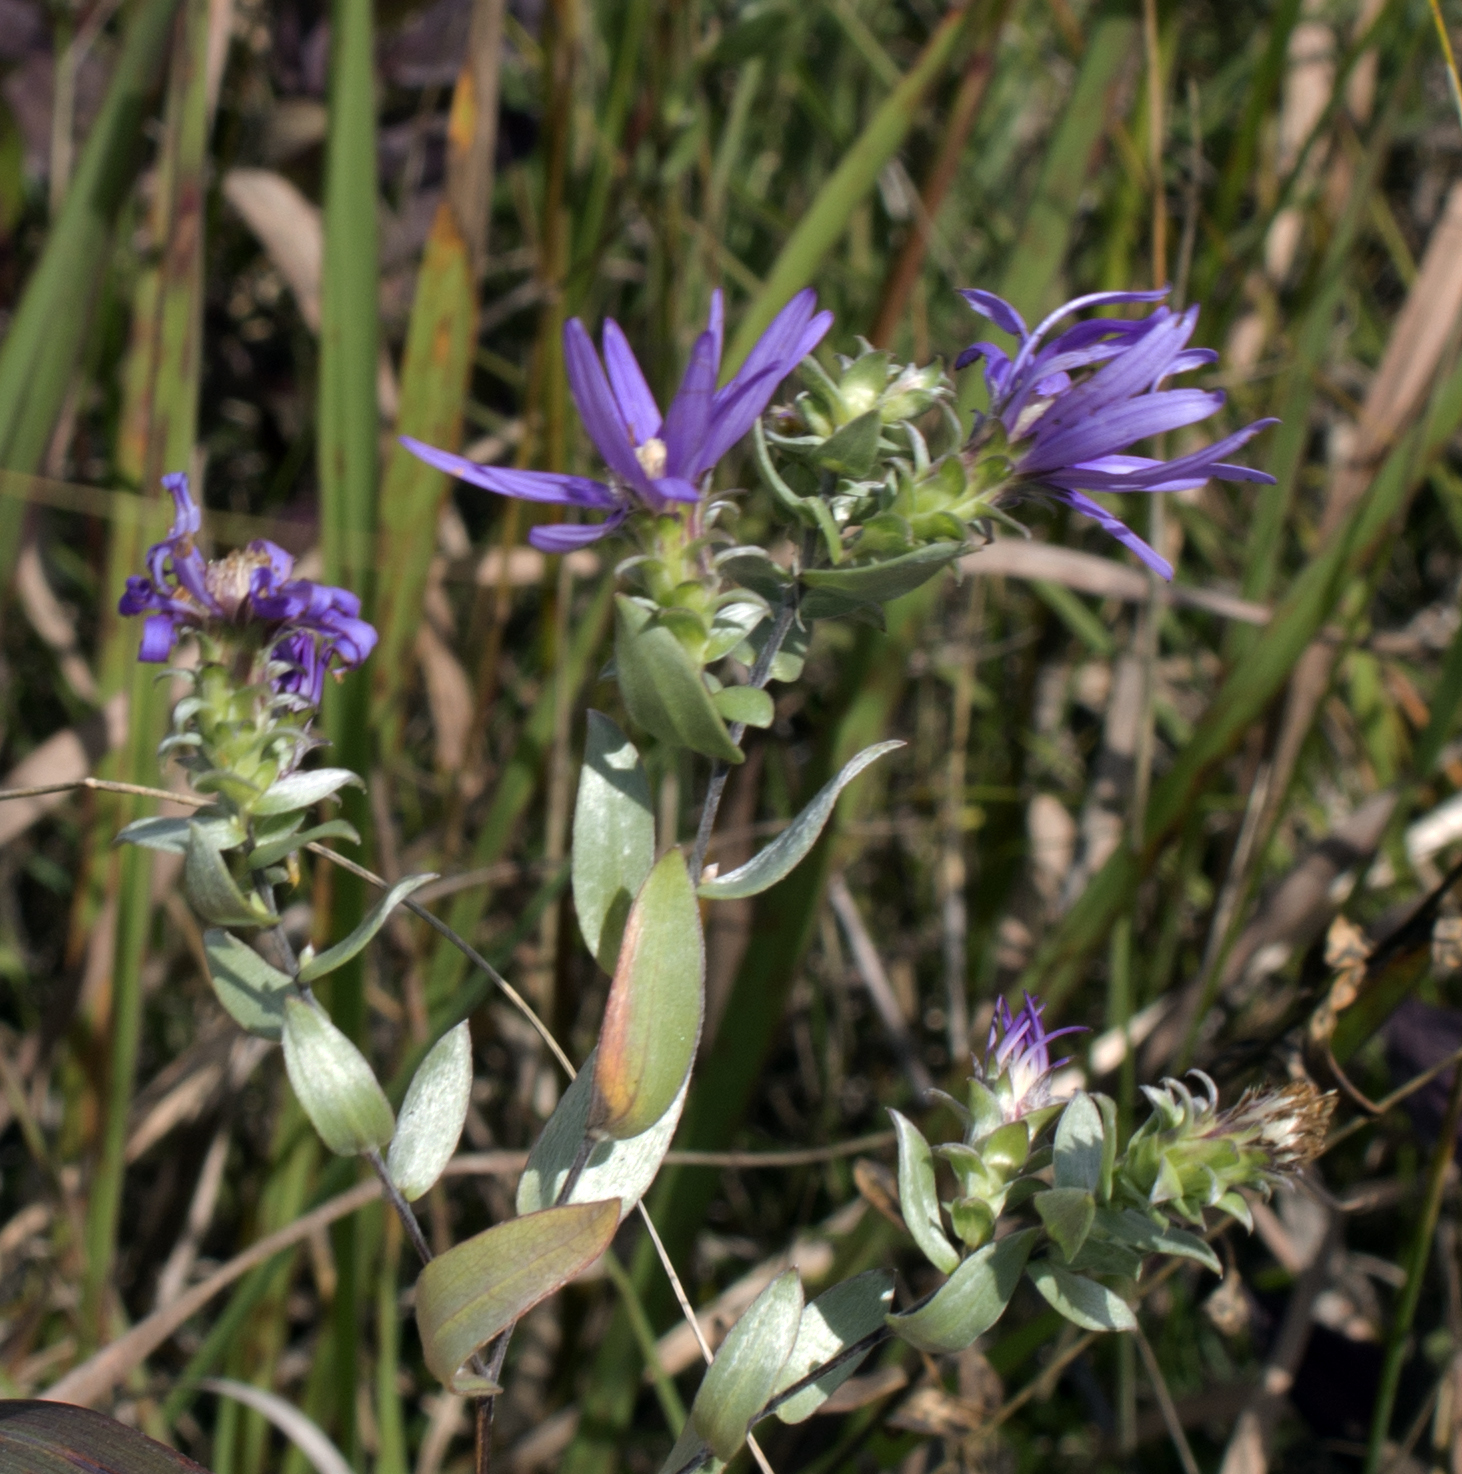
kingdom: Plantae
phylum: Tracheophyta
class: Magnoliopsida
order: Asterales
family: Asteraceae
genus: Symphyotrichum
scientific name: Symphyotrichum sericeum
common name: Silky aster
